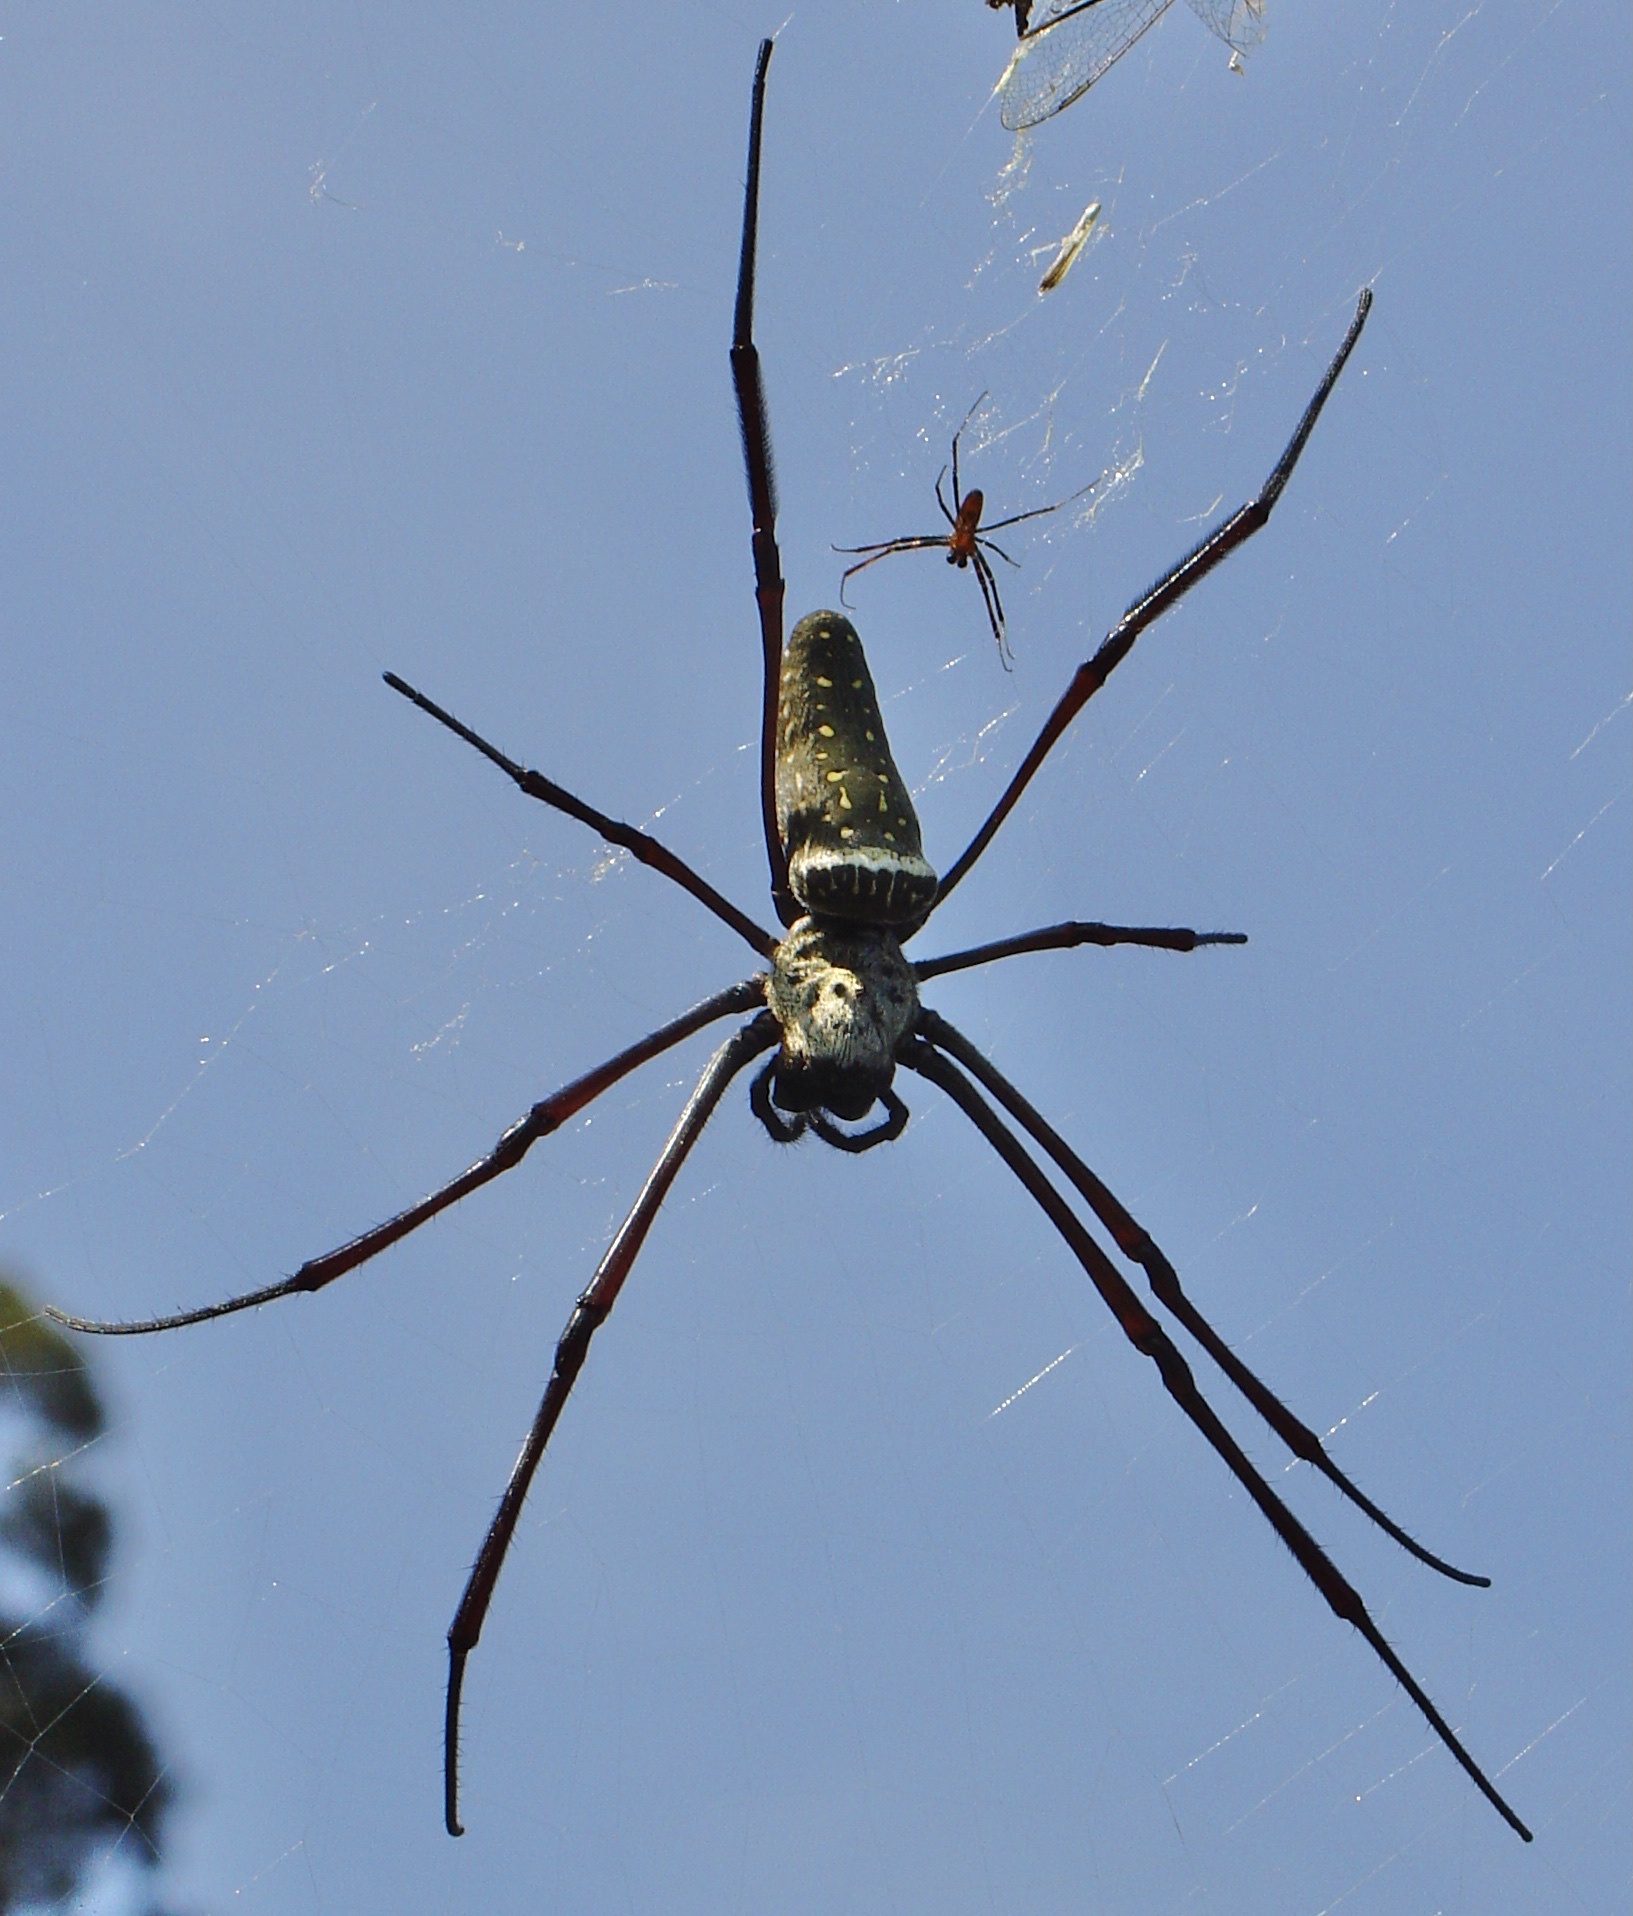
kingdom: Animalia
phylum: Arthropoda
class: Arachnida
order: Araneae
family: Araneidae
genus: Trichonephila
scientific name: Trichonephila antipodiana
